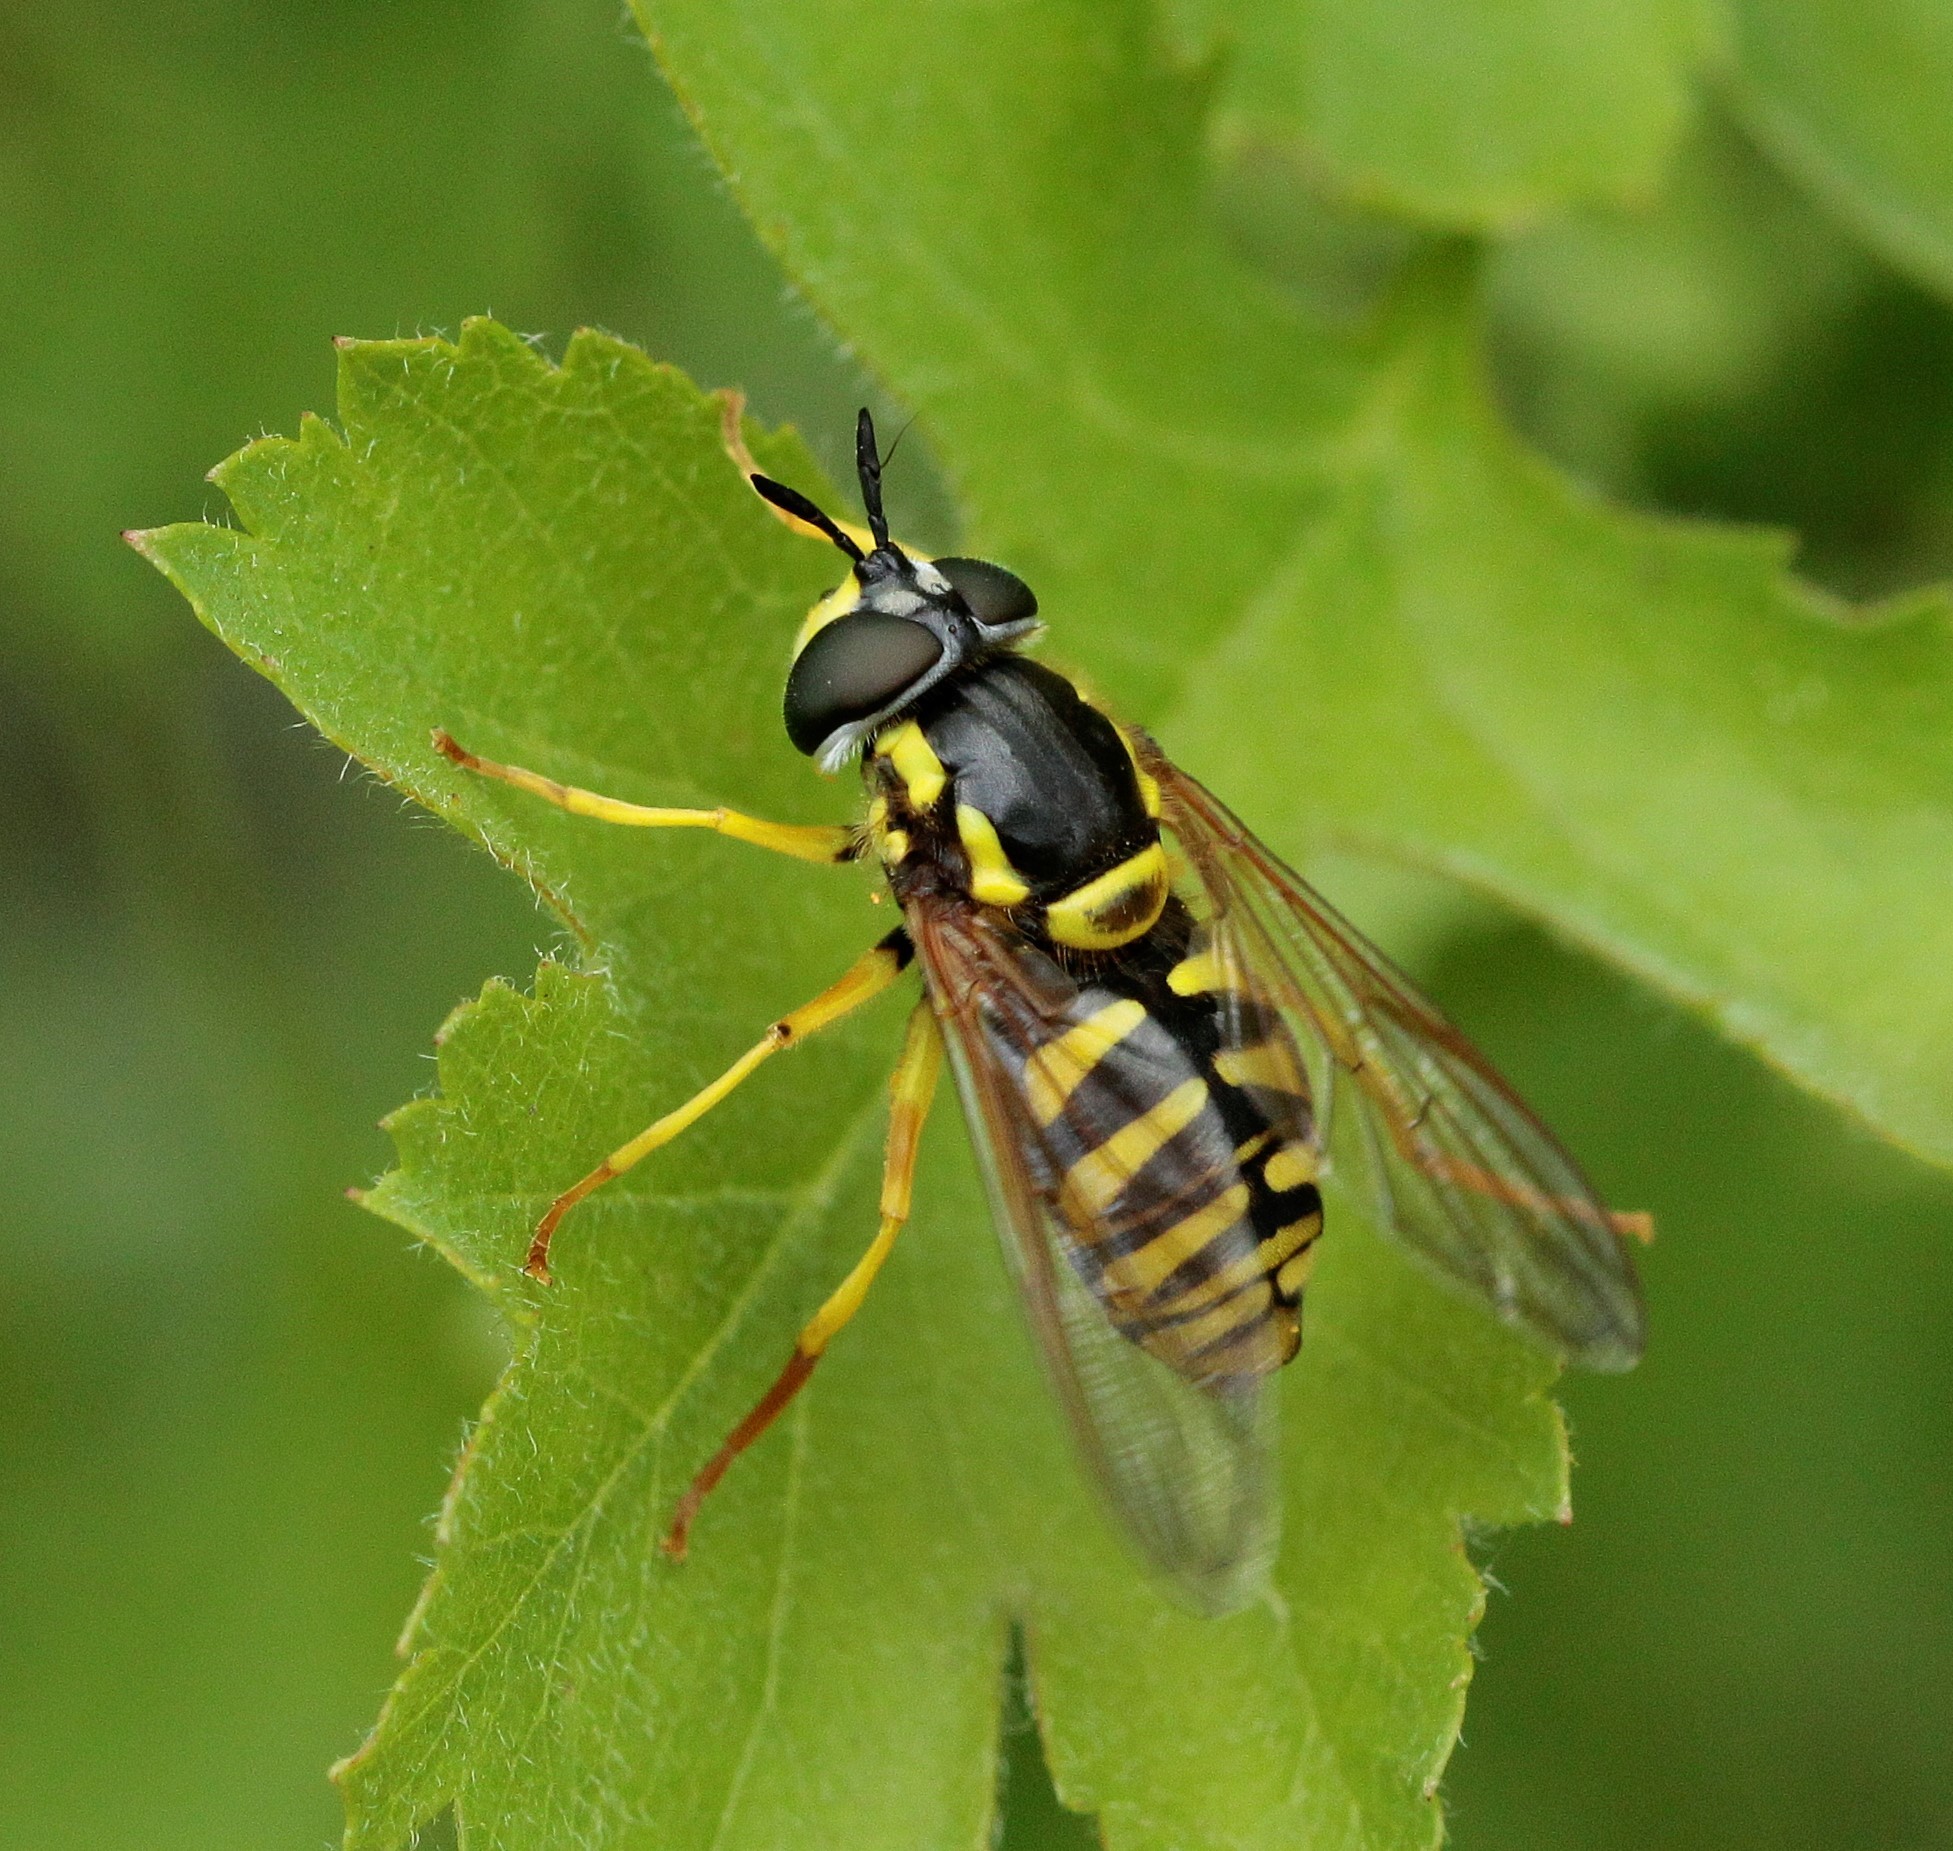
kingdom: Animalia
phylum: Arthropoda
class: Insecta
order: Diptera
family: Syrphidae
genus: Chrysotoxum
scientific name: Chrysotoxum cautum
